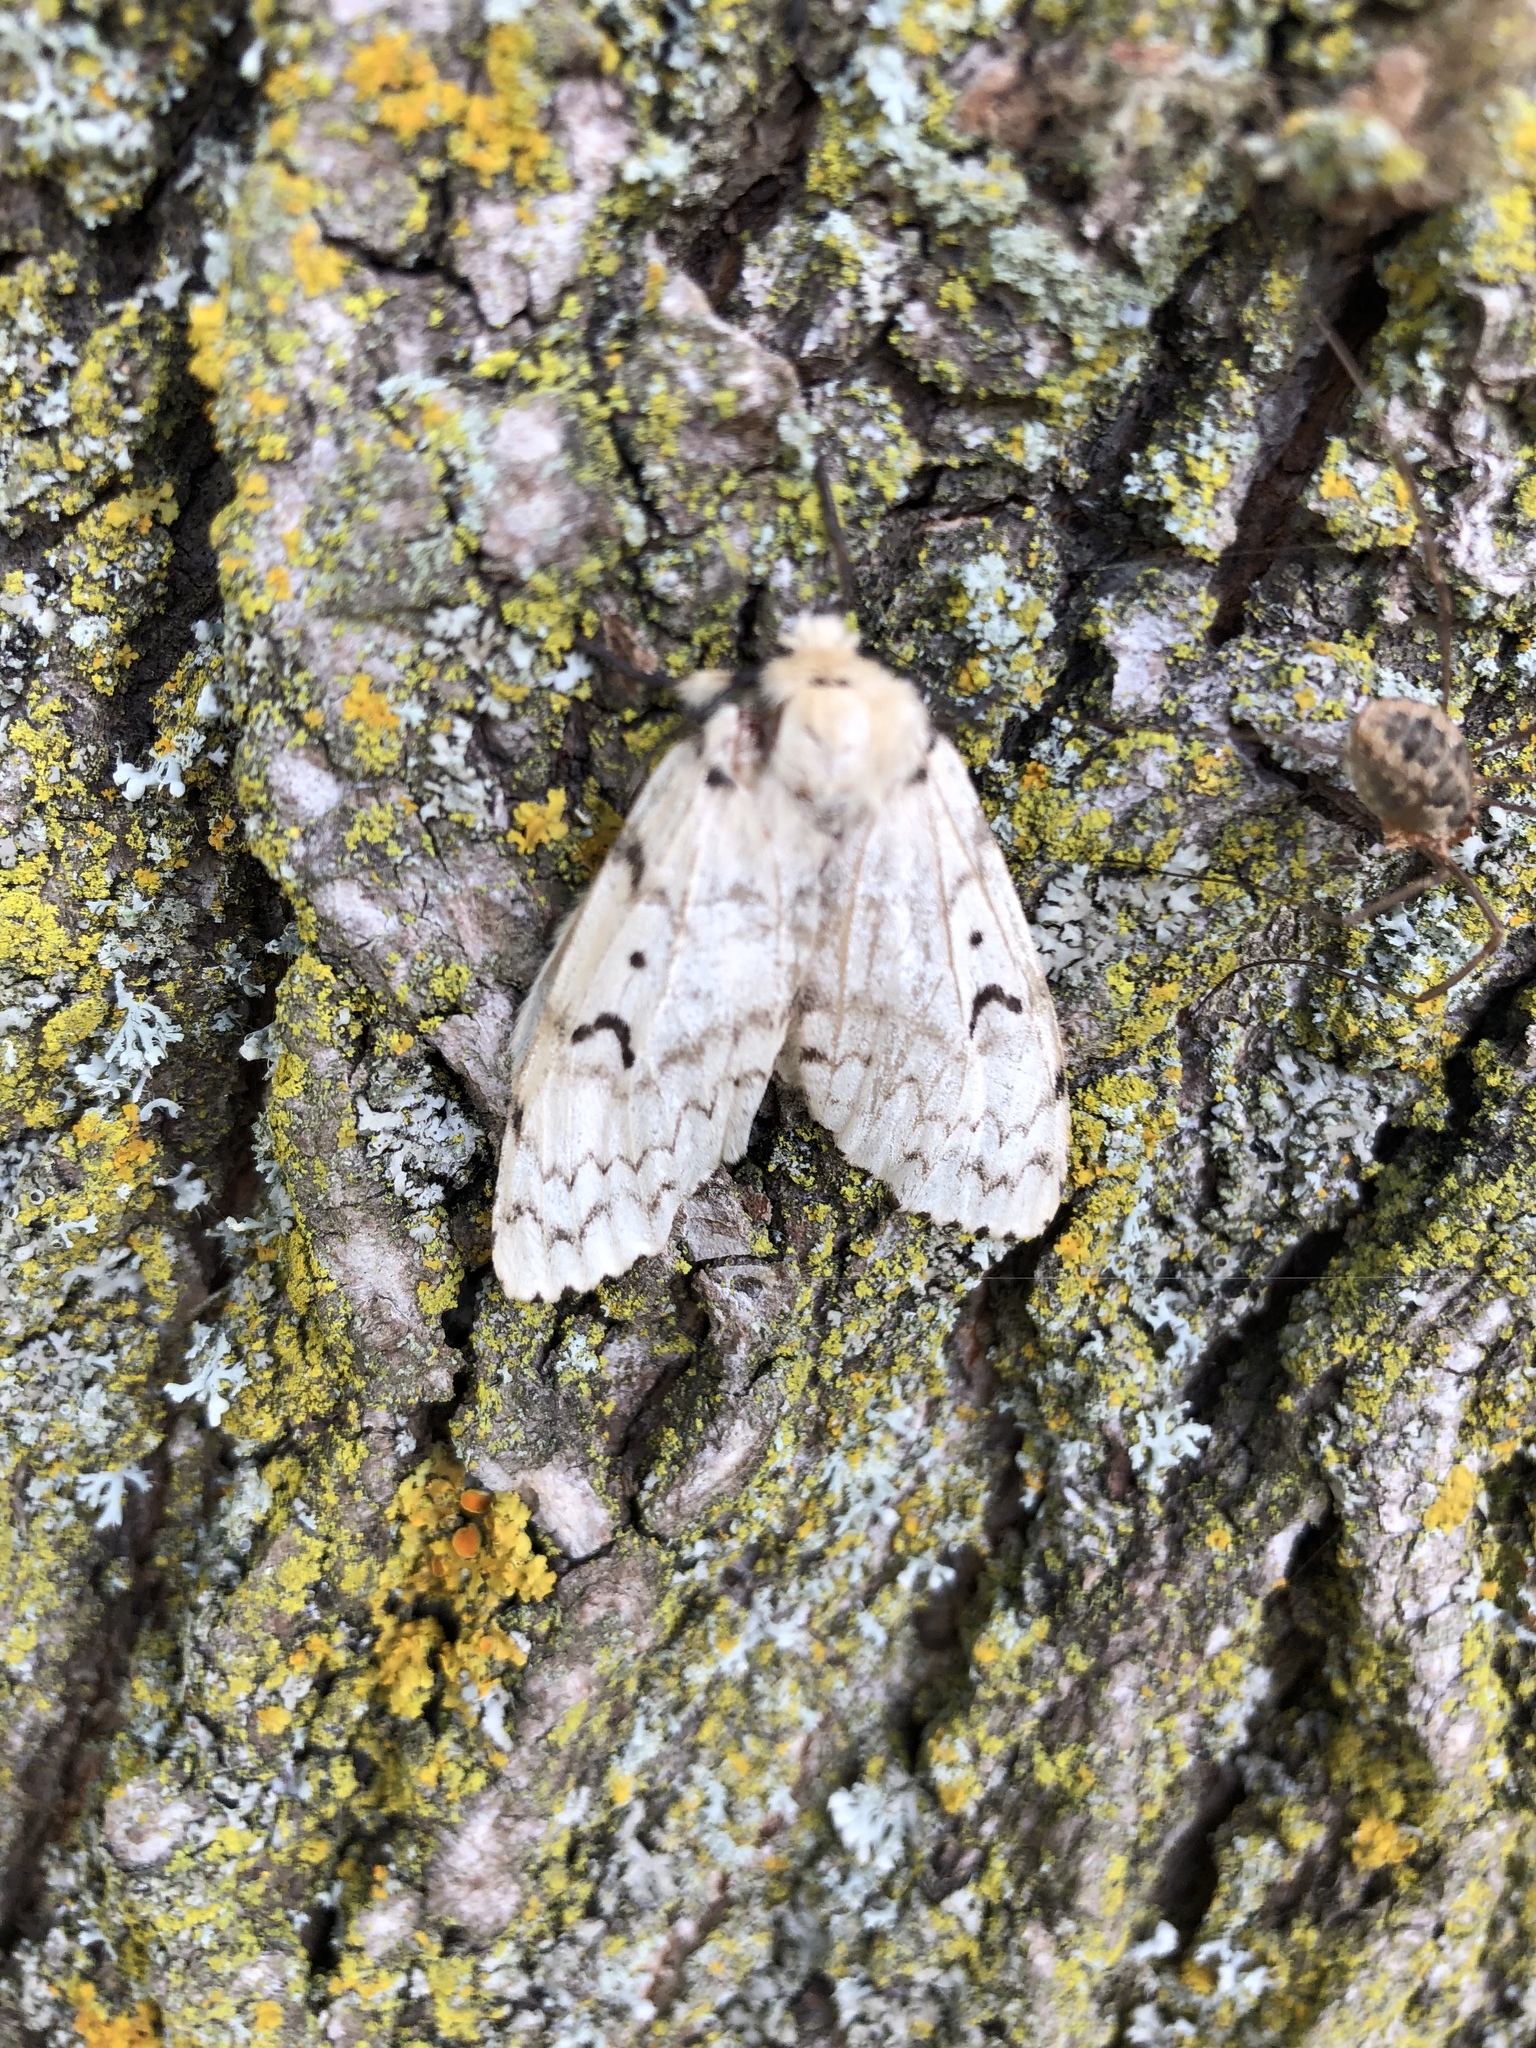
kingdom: Animalia
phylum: Arthropoda
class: Insecta
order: Lepidoptera
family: Erebidae
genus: Lymantria
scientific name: Lymantria dispar
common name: Gypsy moth
